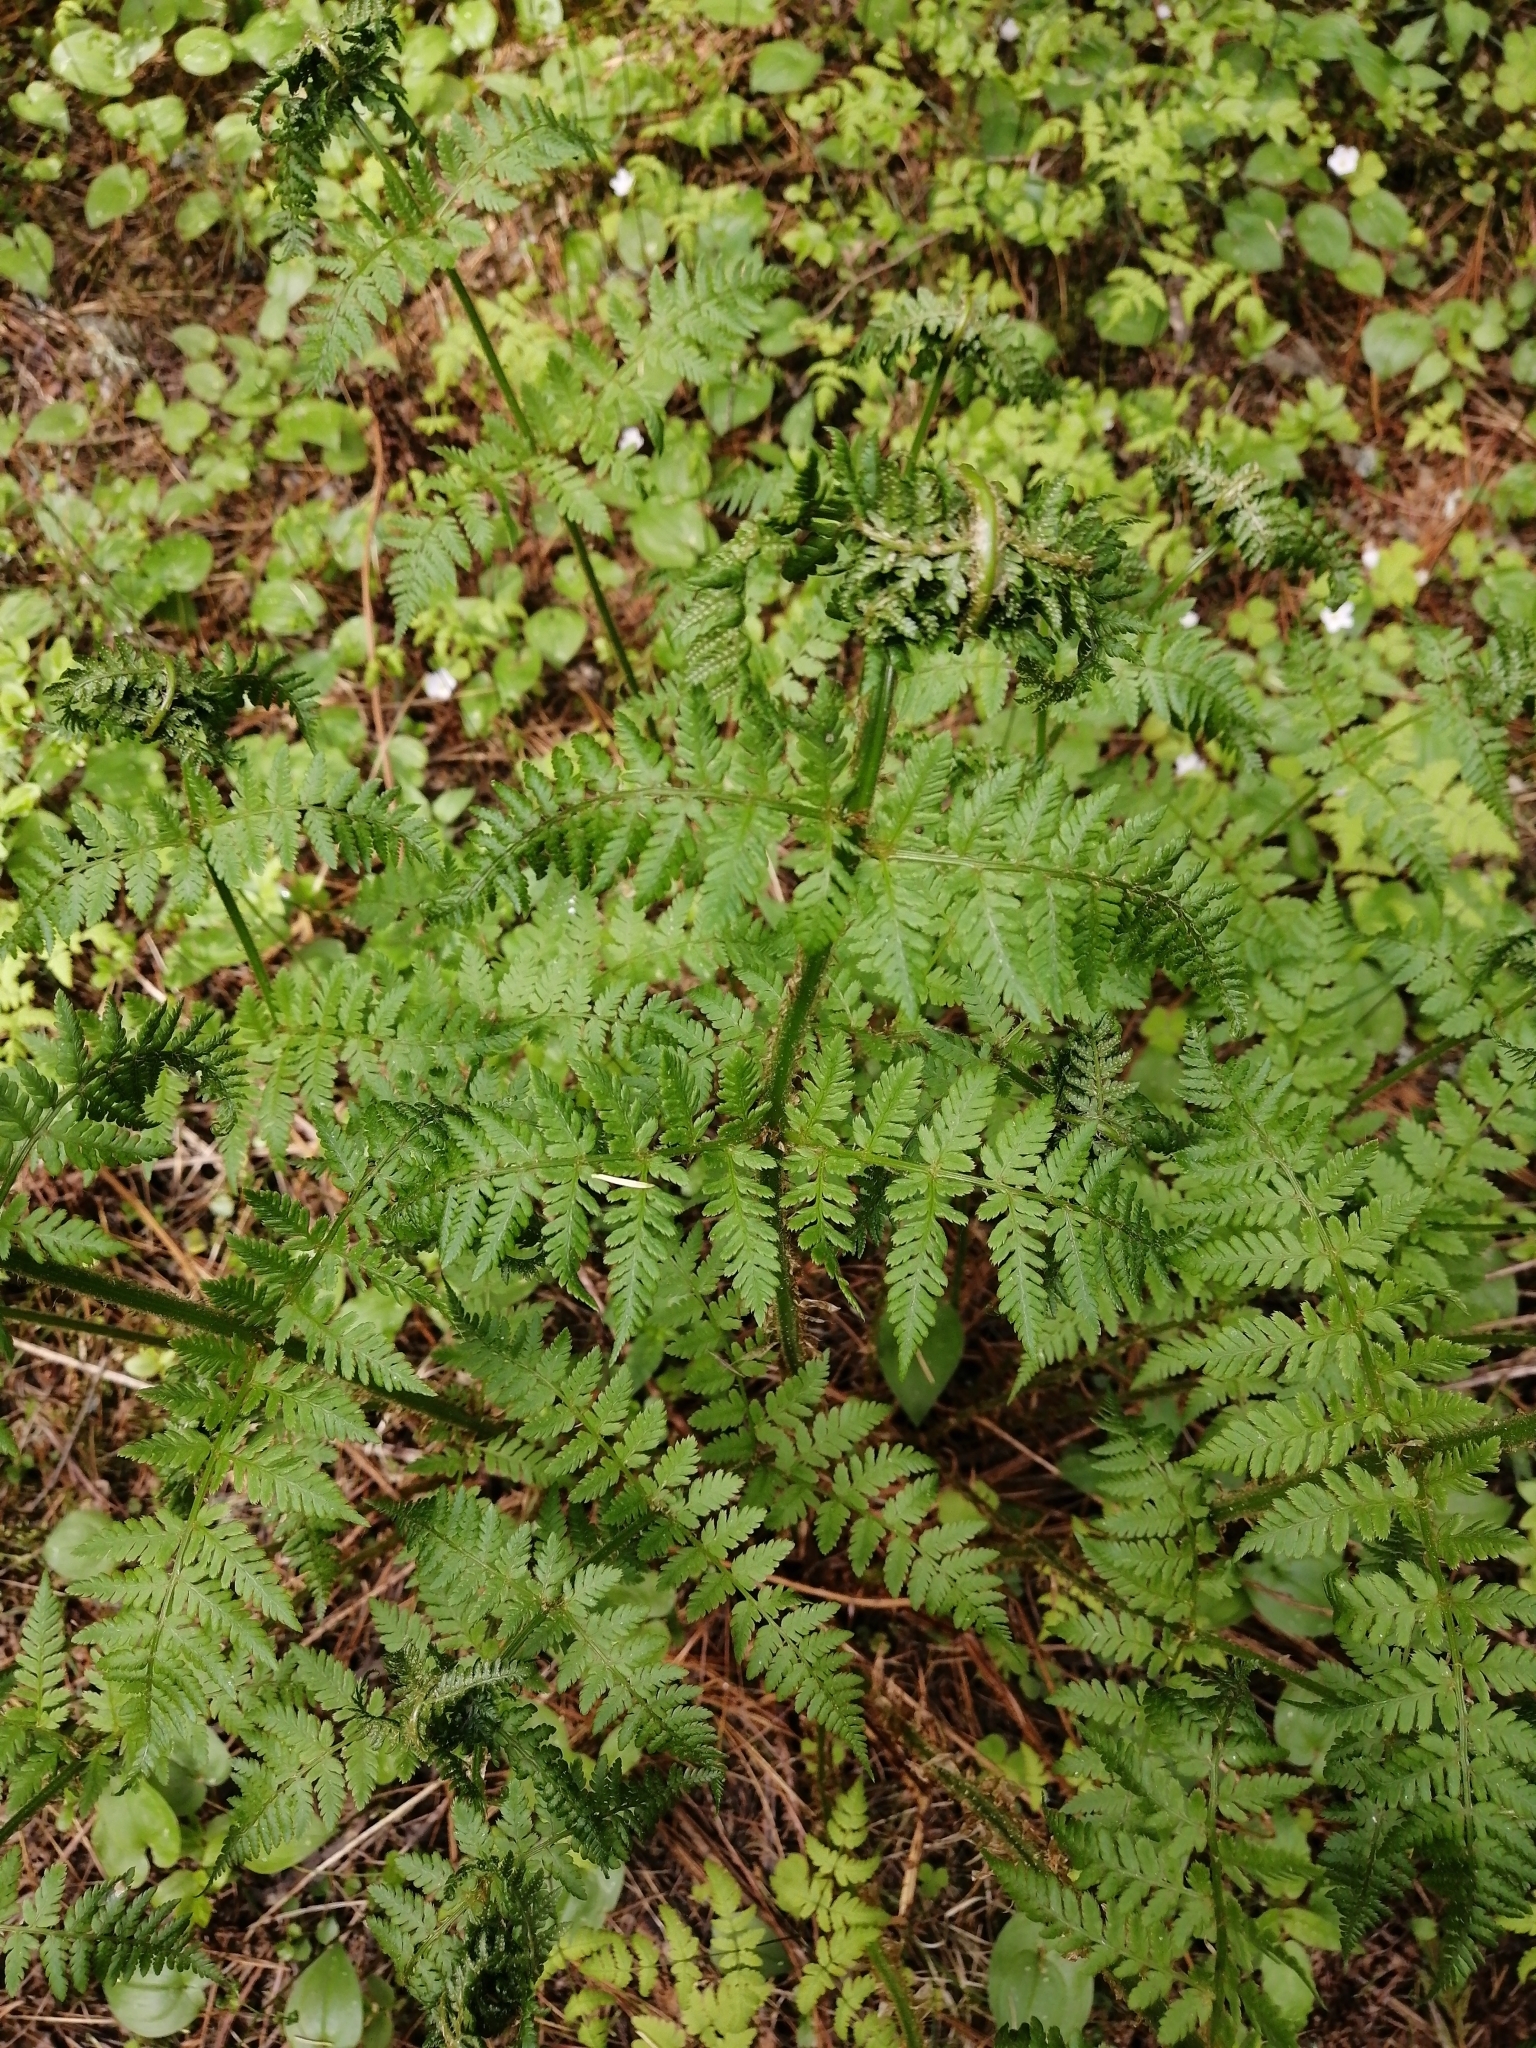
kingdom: Plantae
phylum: Tracheophyta
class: Polypodiopsida
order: Polypodiales
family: Athyriaceae
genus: Athyrium
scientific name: Athyrium filix-femina
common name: Lady fern
